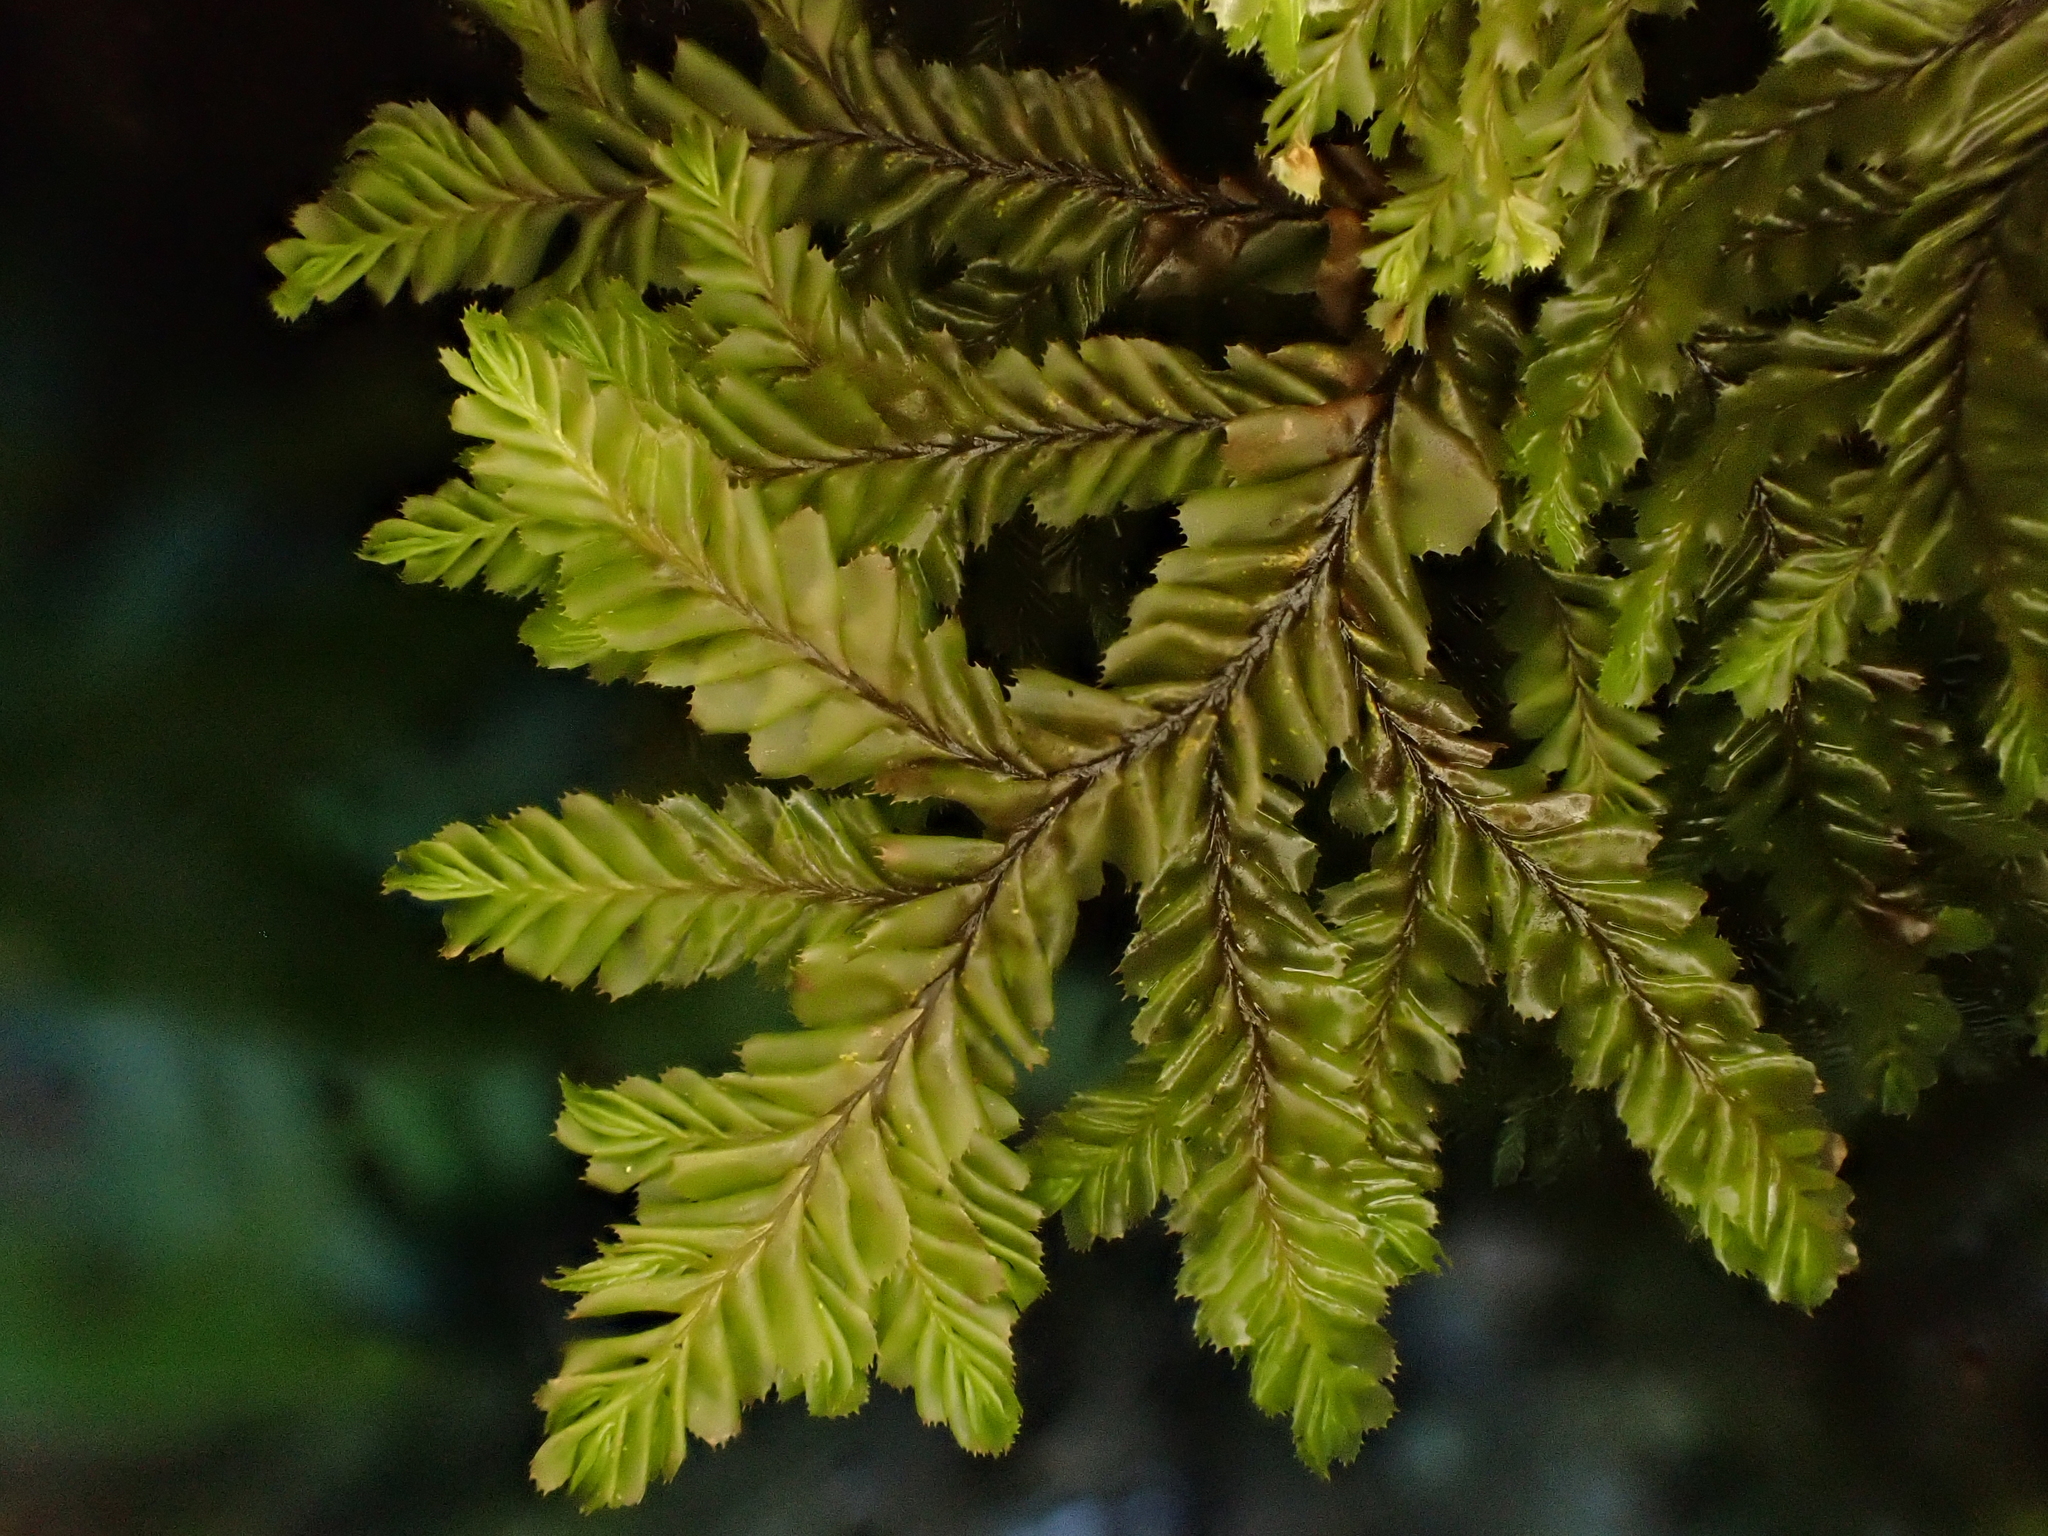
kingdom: Plantae
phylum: Marchantiophyta
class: Jungermanniopsida
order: Jungermanniales
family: Plagiochilaceae
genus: Plagiochila
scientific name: Plagiochila stephensoniana
